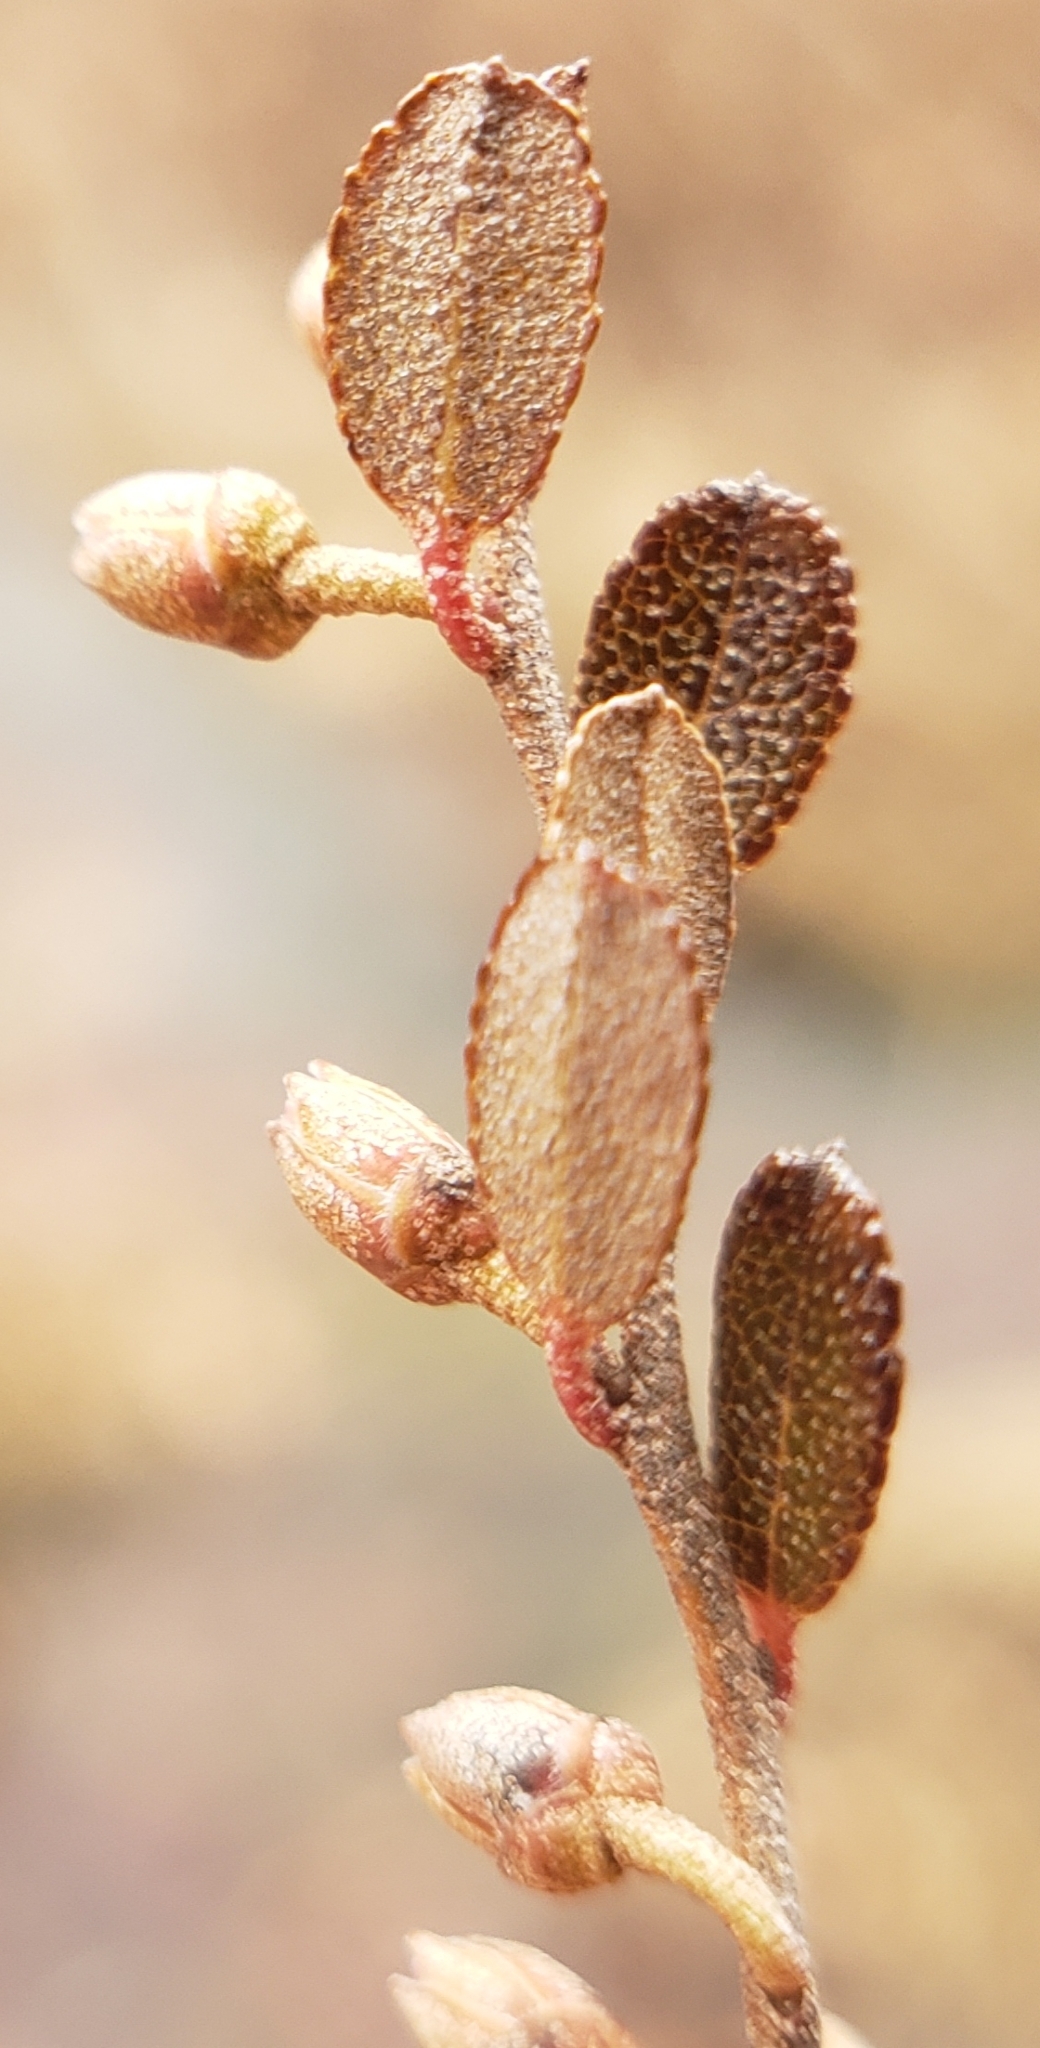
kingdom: Plantae
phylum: Tracheophyta
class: Magnoliopsida
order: Ericales
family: Ericaceae
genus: Chamaedaphne
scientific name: Chamaedaphne calyculata
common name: Leatherleaf
